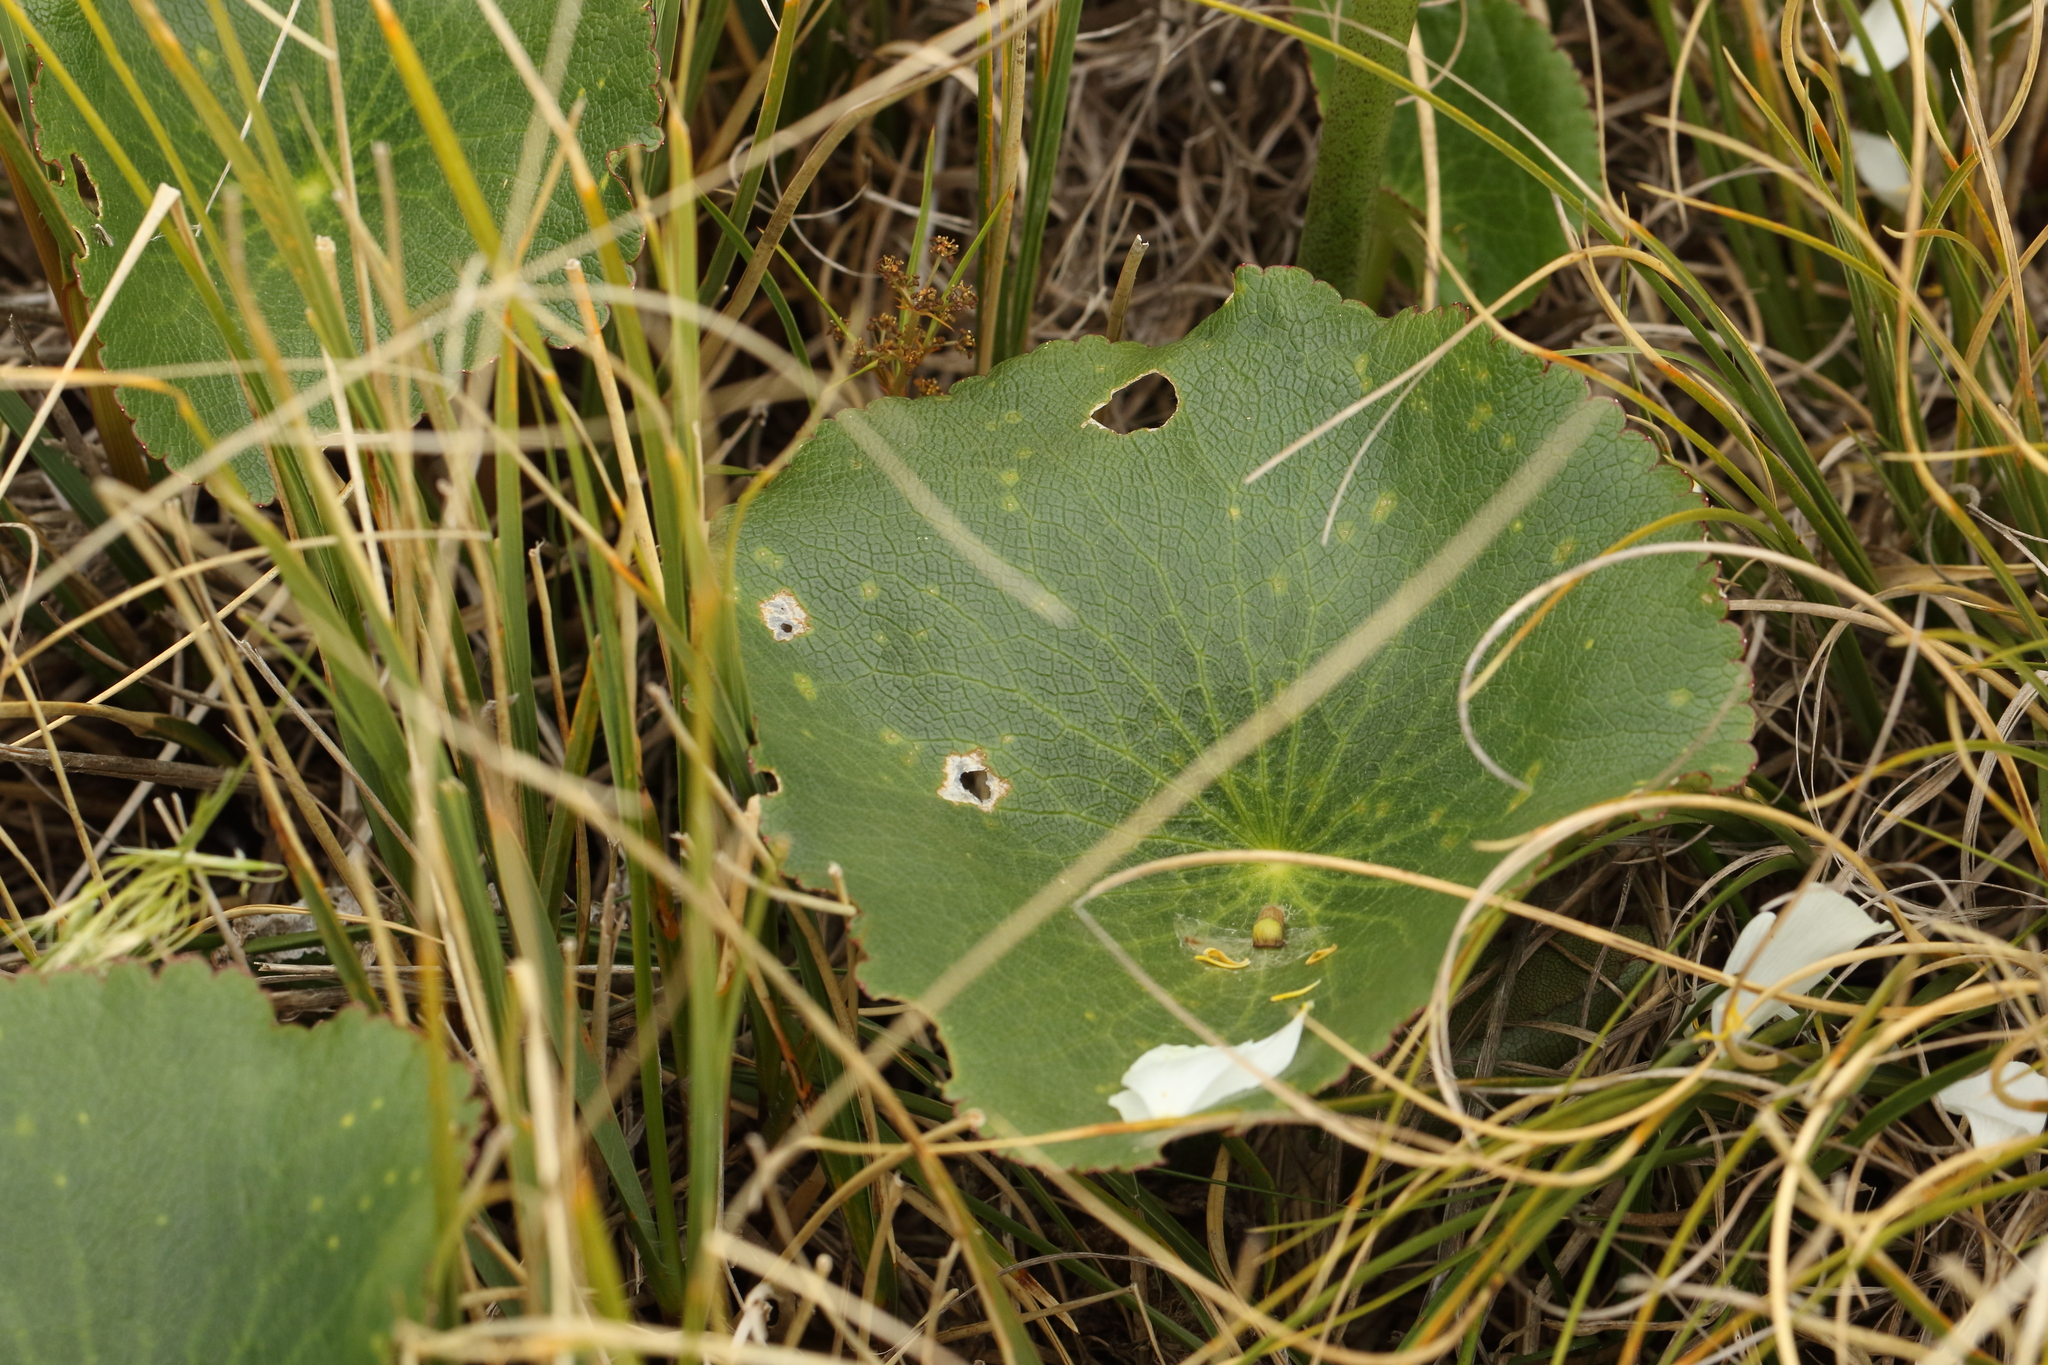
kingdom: Plantae
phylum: Tracheophyta
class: Magnoliopsida
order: Ranunculales
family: Ranunculaceae
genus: Ranunculus
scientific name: Ranunculus lyallii
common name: Mountain-lily
